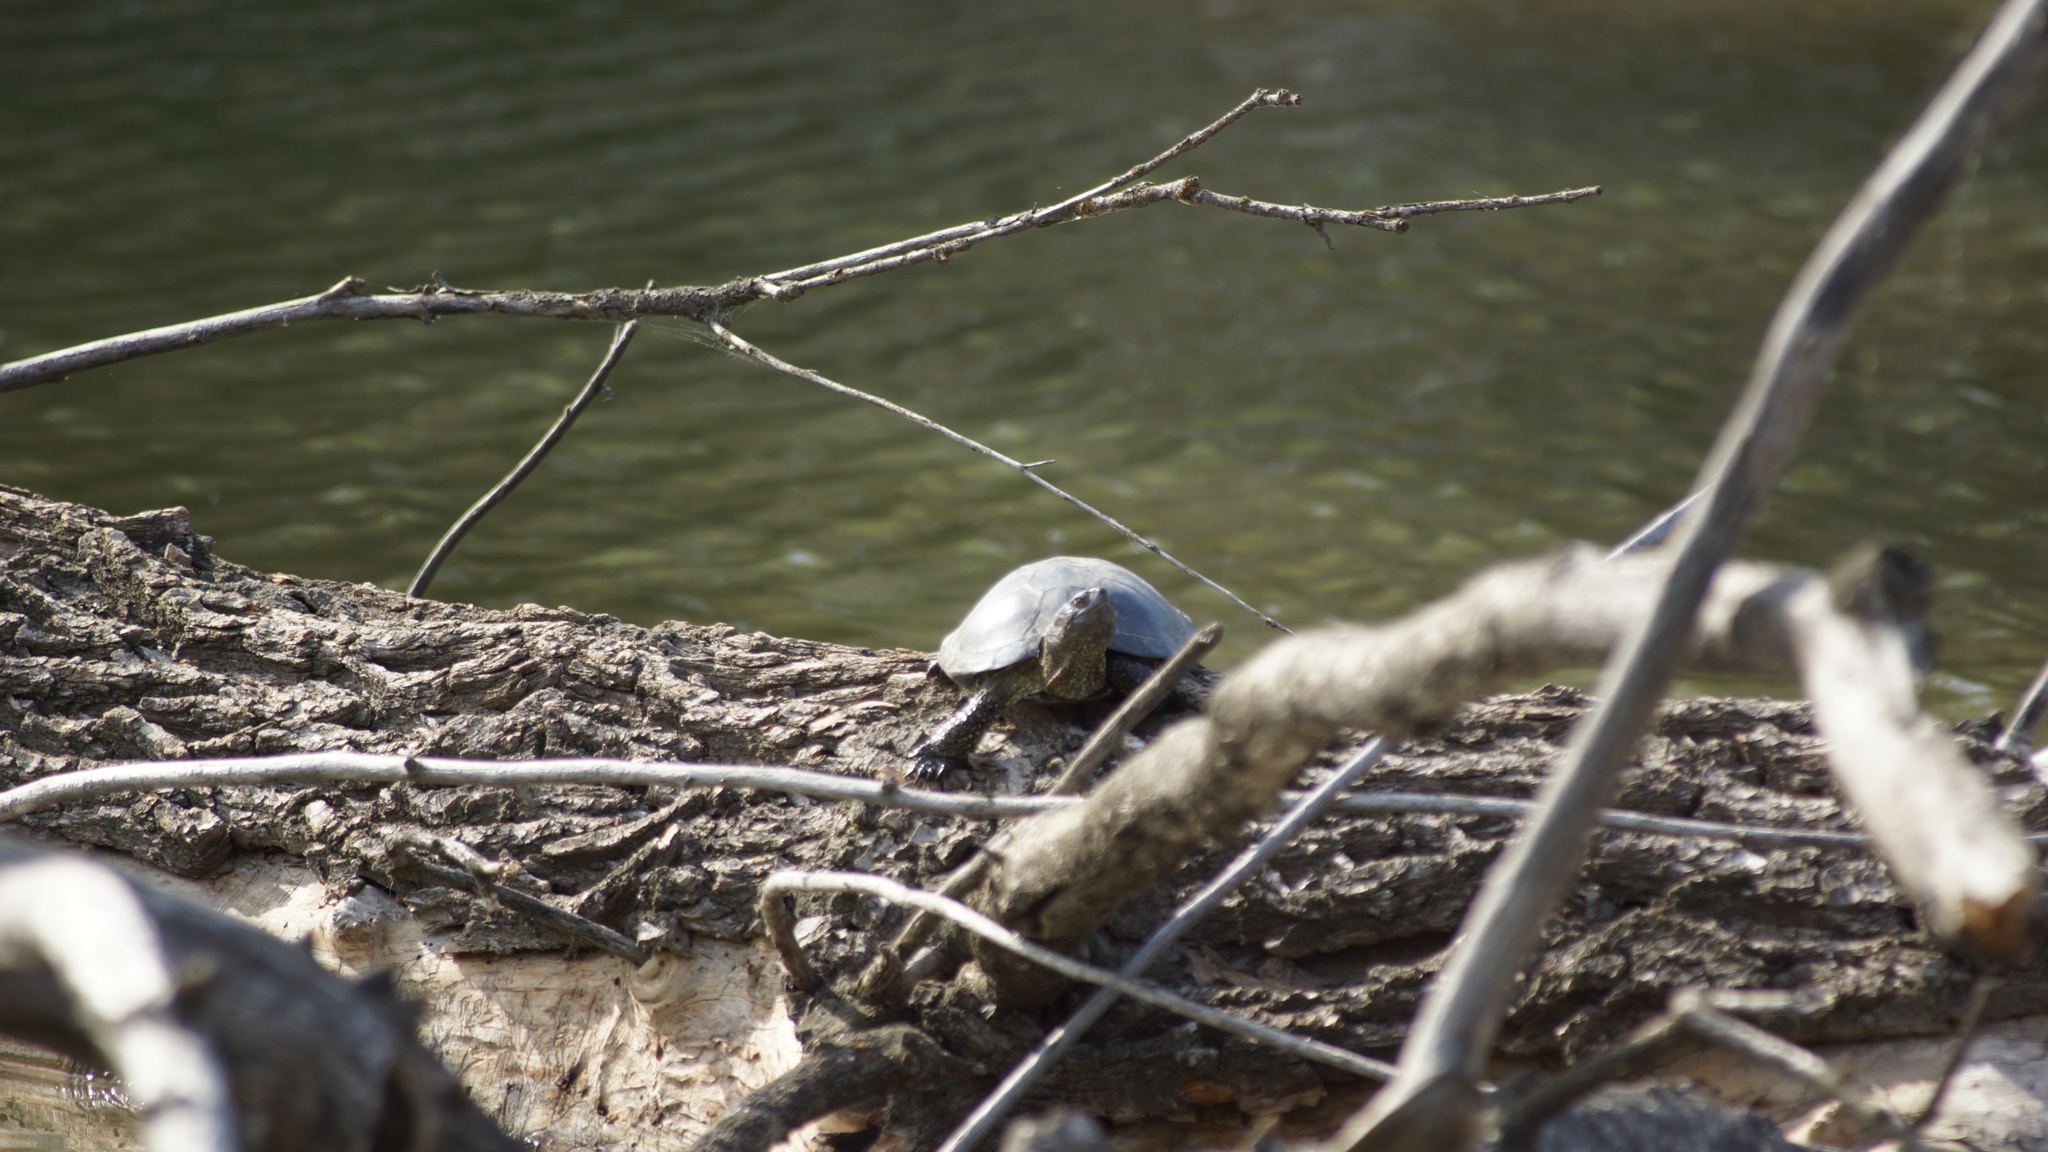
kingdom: Animalia
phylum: Chordata
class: Testudines
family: Emydidae
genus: Emys
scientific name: Emys orbicularis
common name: European pond turtle
